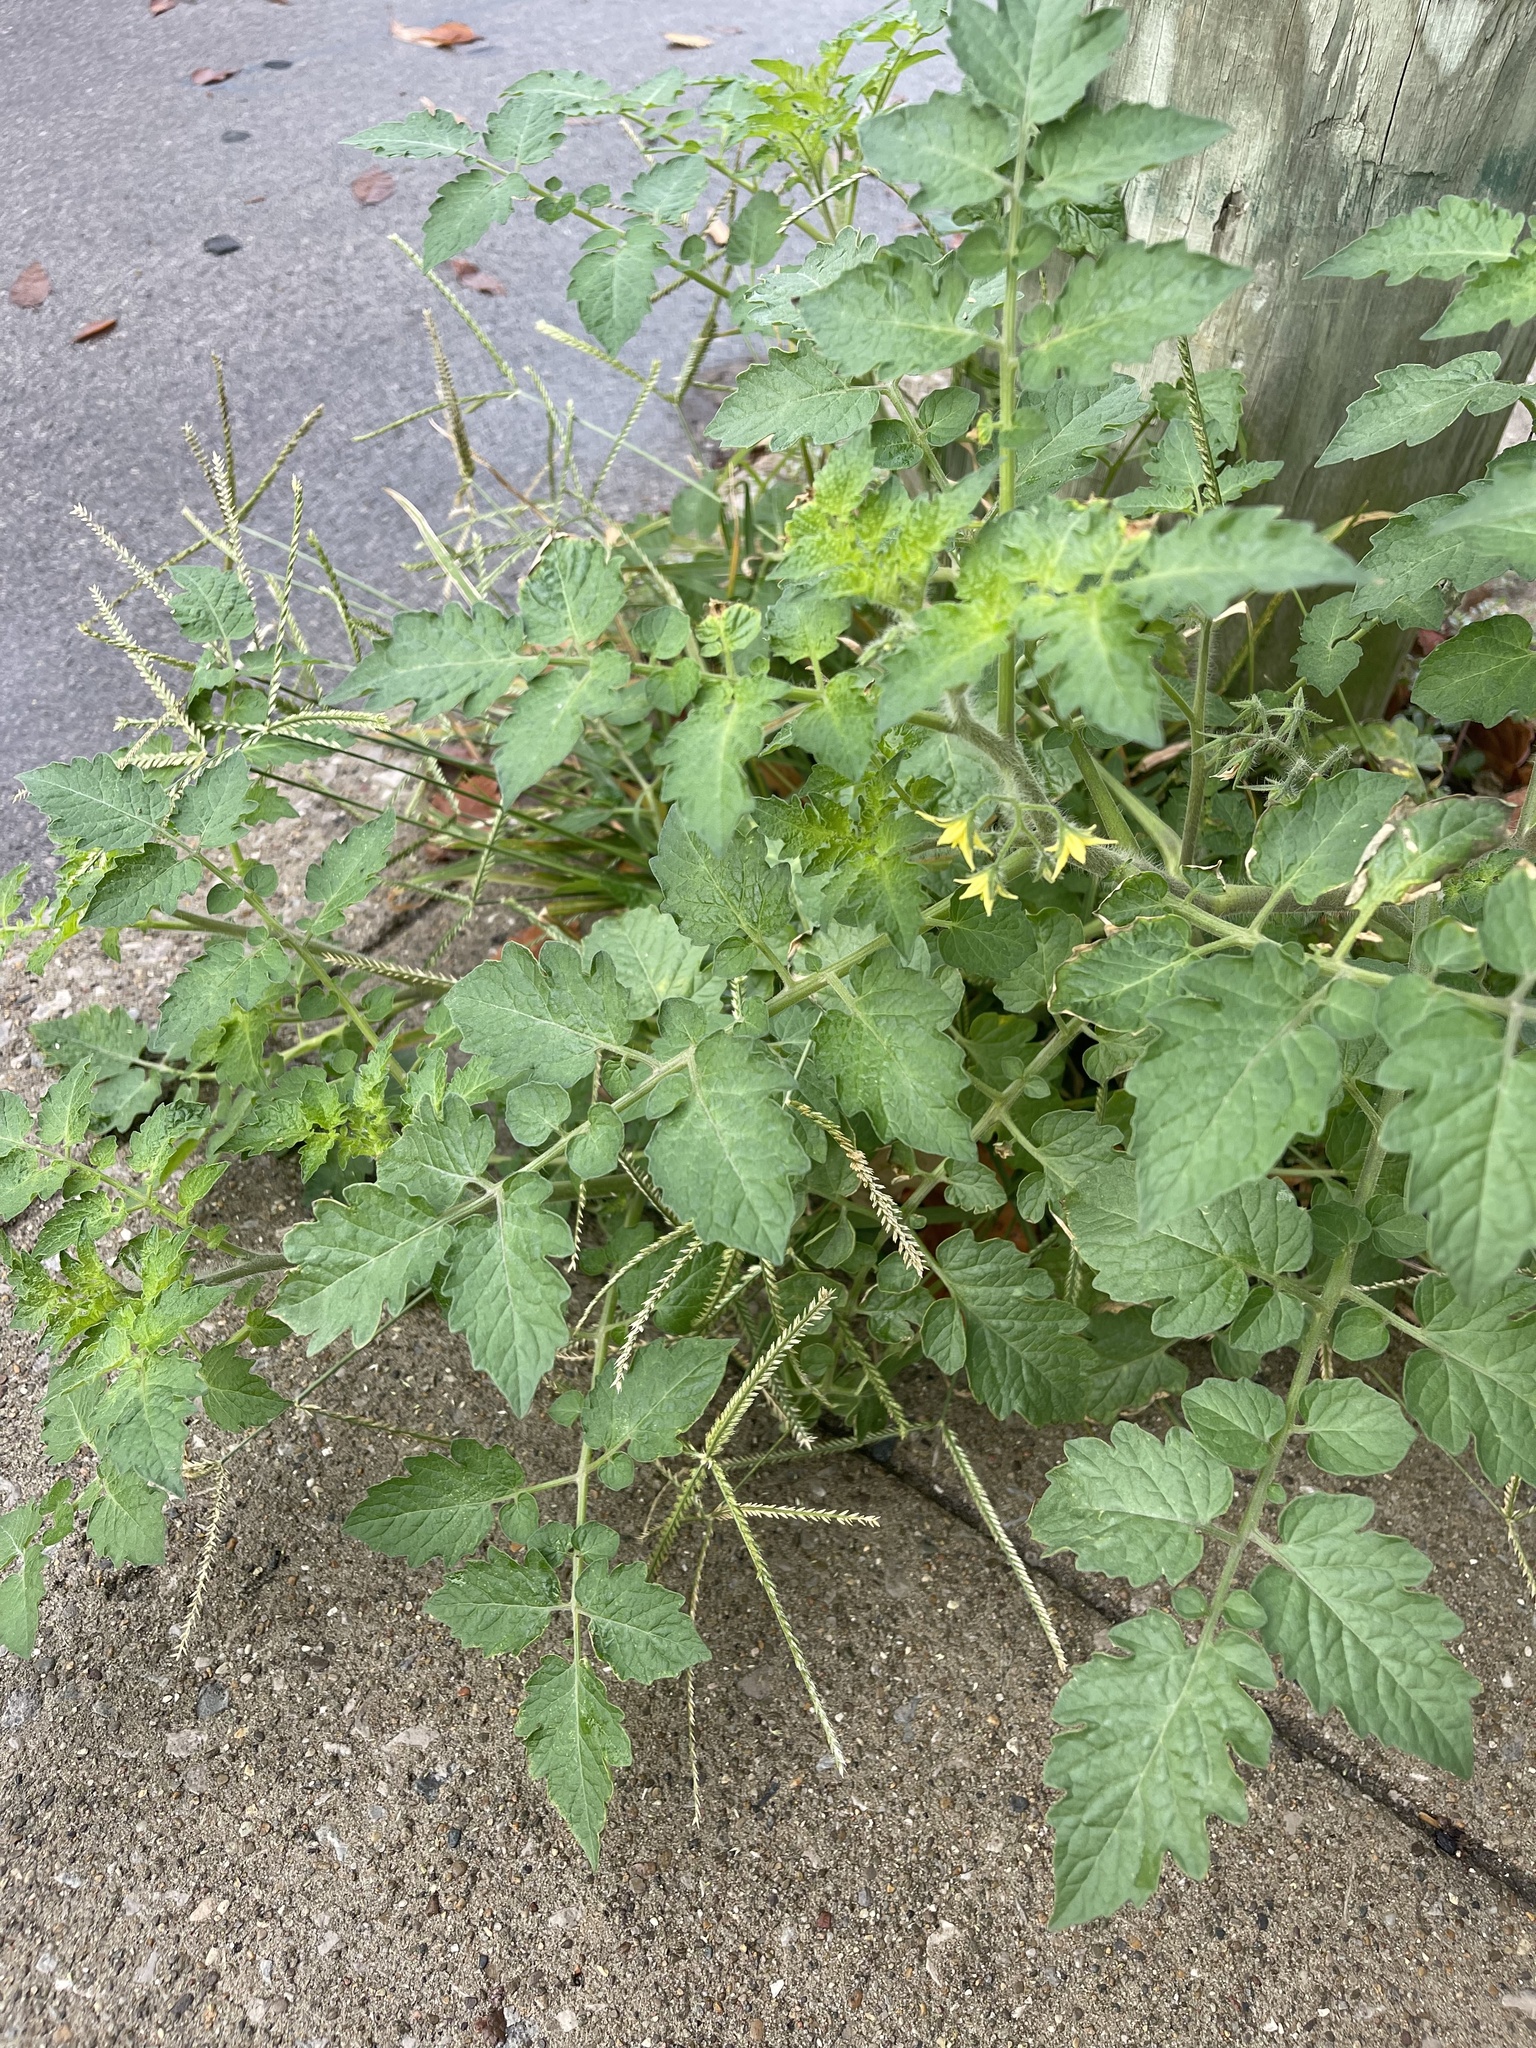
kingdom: Plantae
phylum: Tracheophyta
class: Magnoliopsida
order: Solanales
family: Solanaceae
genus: Solanum
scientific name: Solanum lycopersicum
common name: Garden tomato
